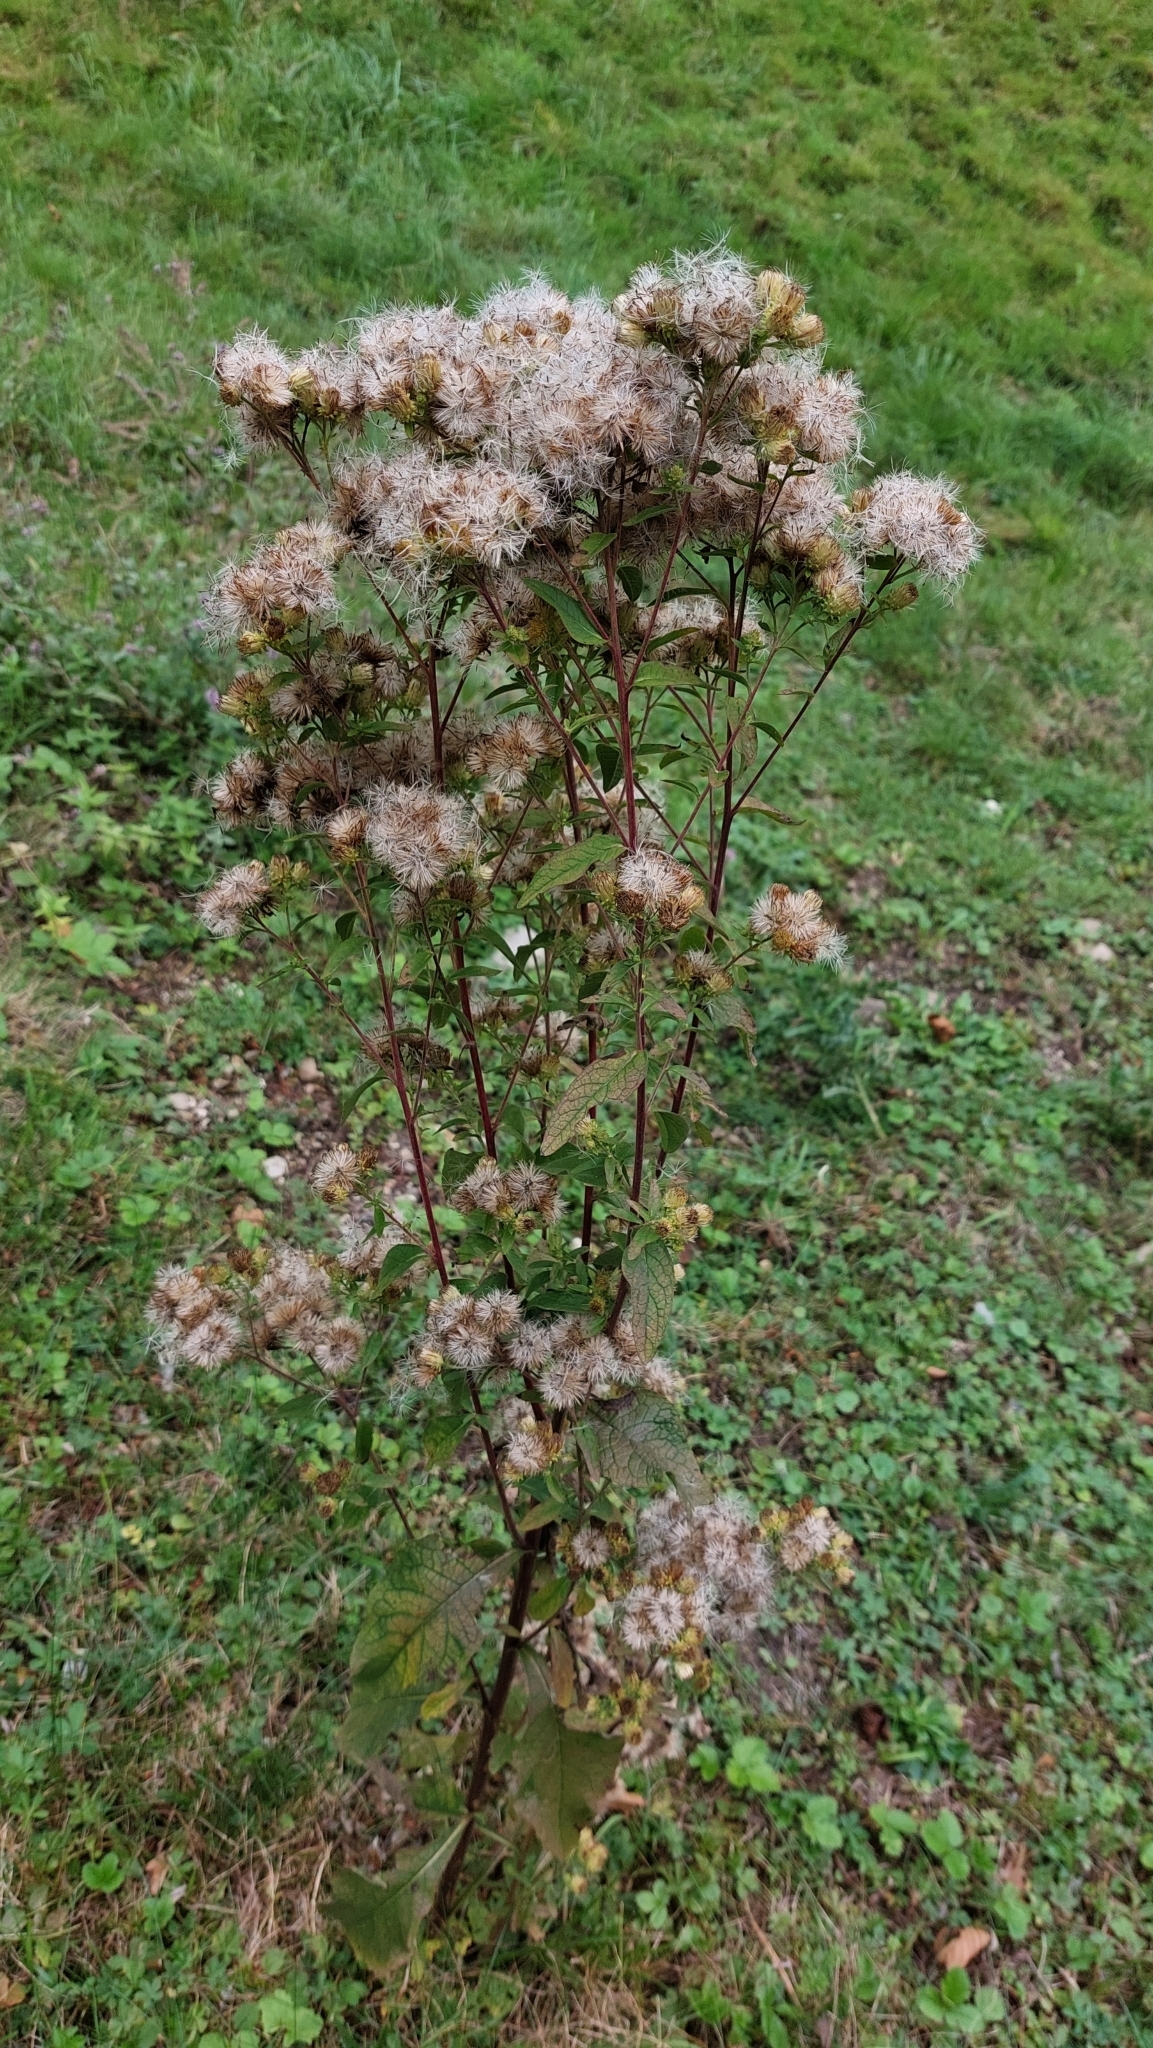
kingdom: Plantae
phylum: Tracheophyta
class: Magnoliopsida
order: Asterales
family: Asteraceae
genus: Pentanema
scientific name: Pentanema squarrosum
